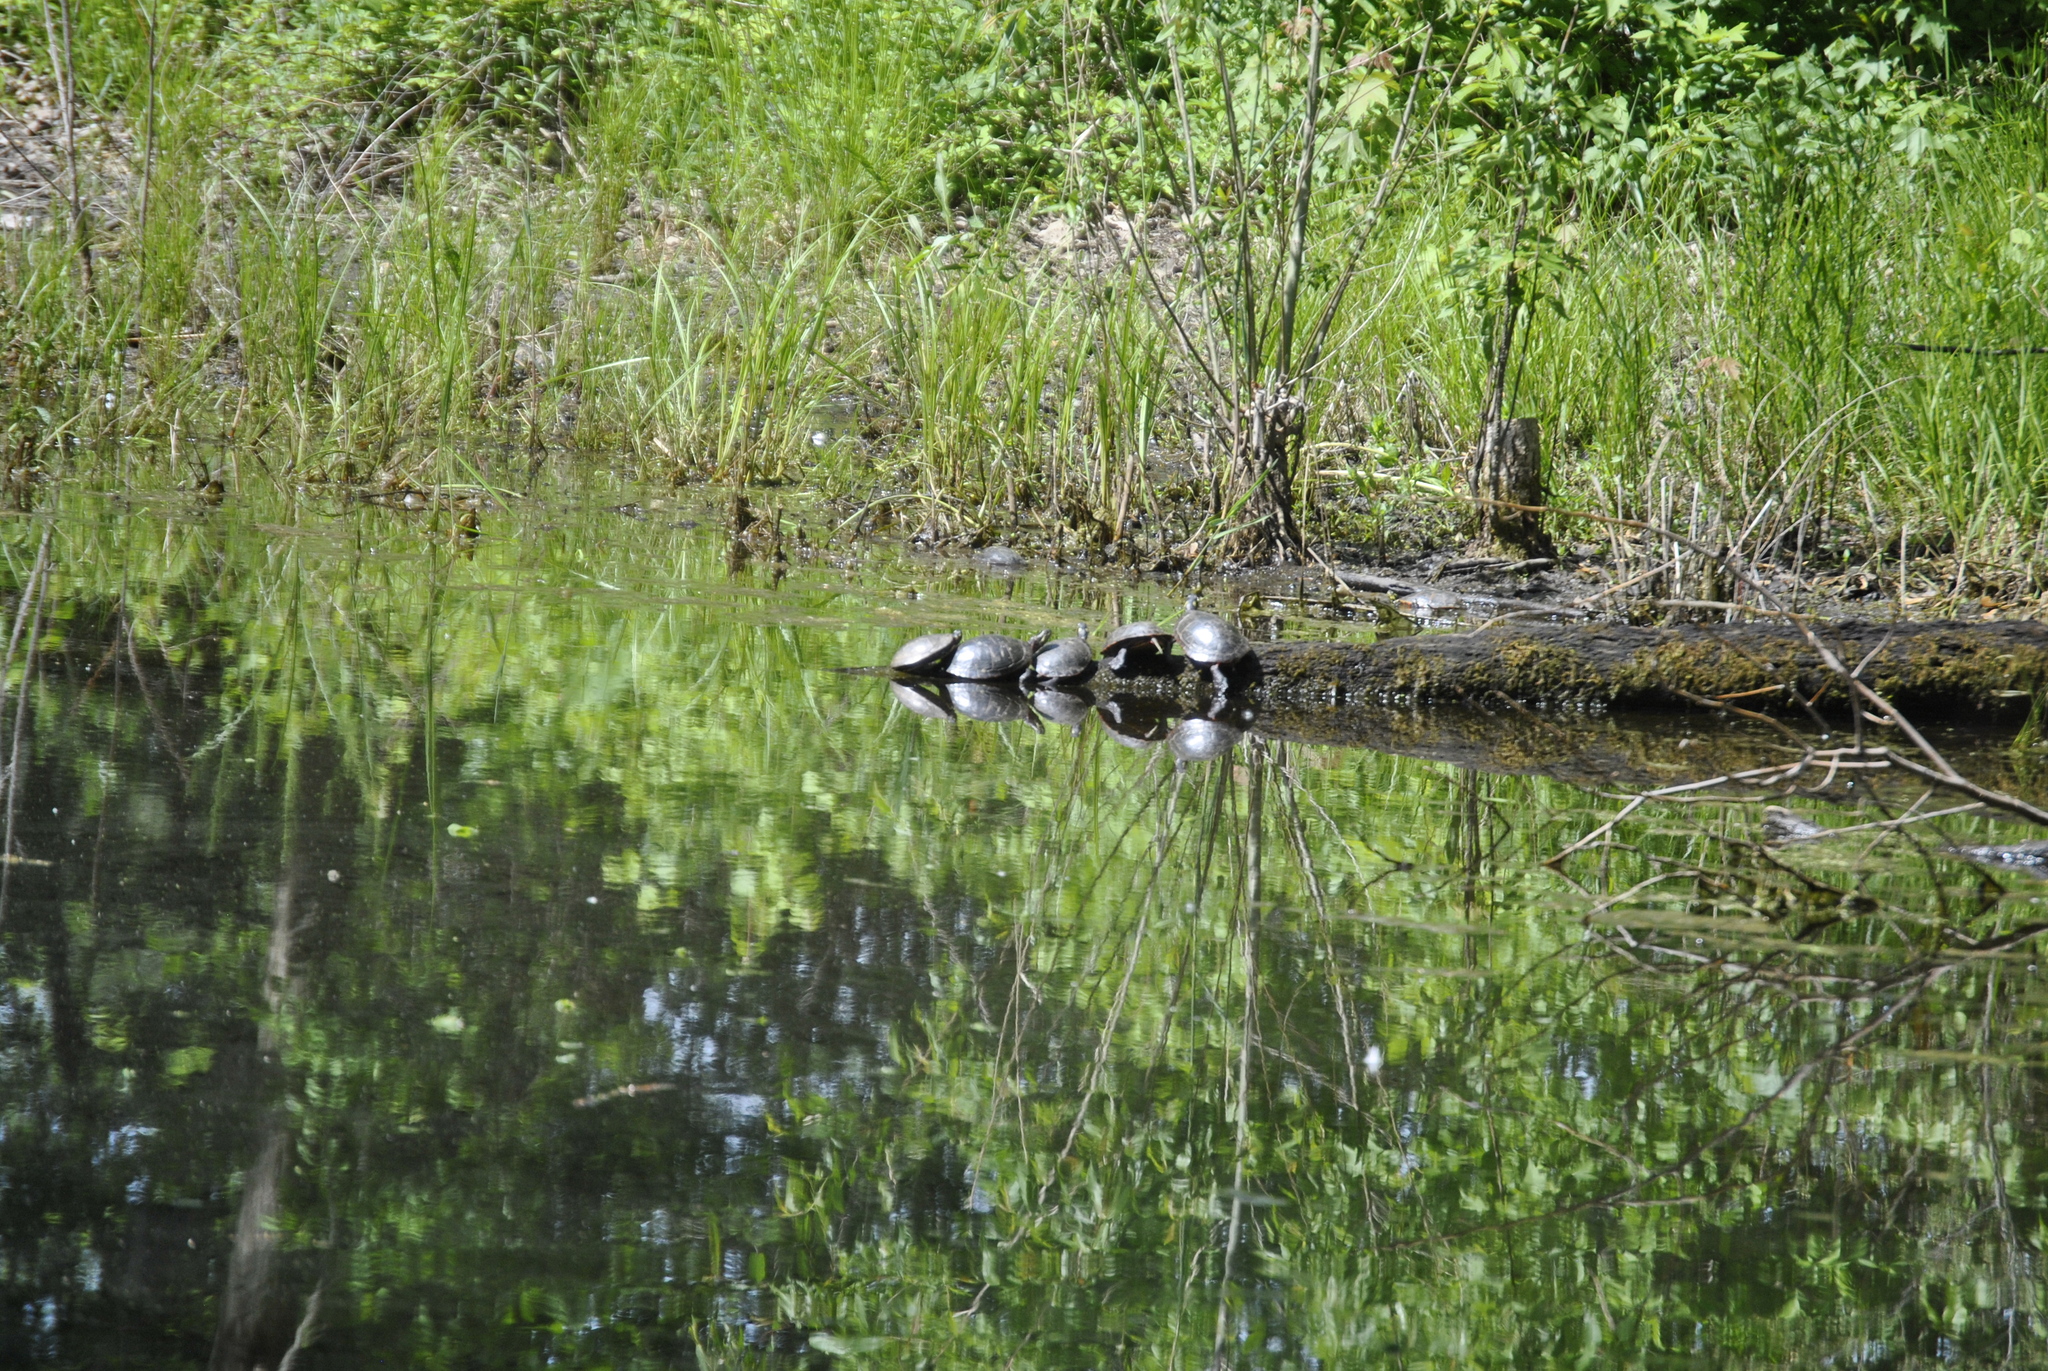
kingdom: Animalia
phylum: Chordata
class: Testudines
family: Emydidae
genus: Chrysemys
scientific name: Chrysemys picta
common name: Painted turtle
